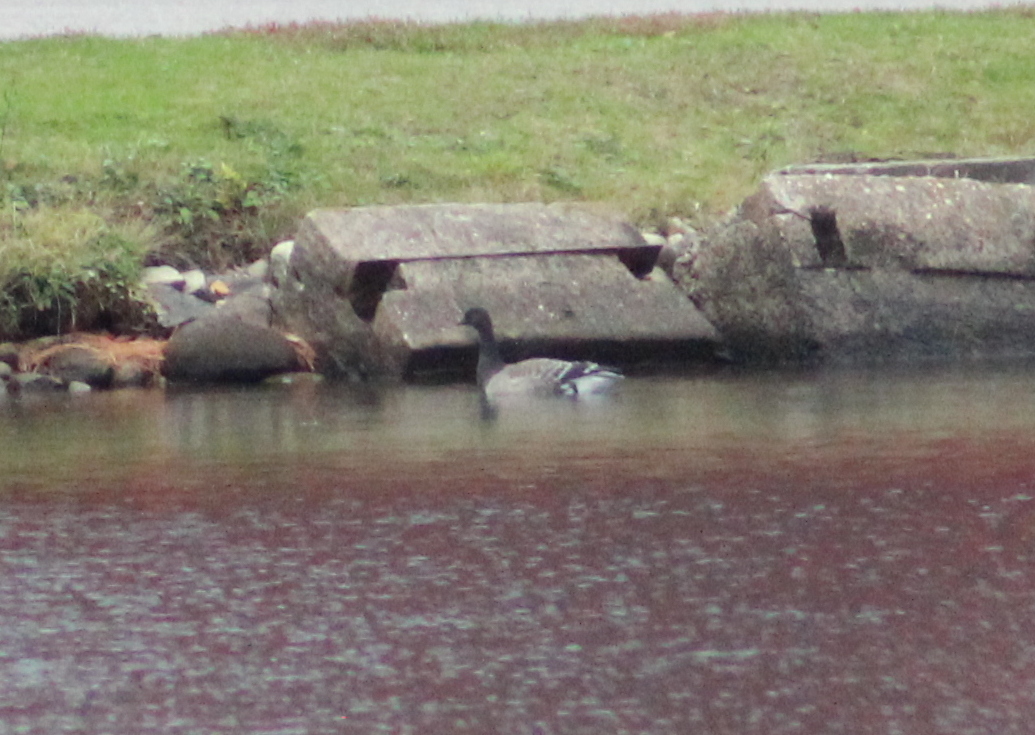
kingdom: Animalia
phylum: Chordata
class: Aves
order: Anseriformes
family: Anatidae
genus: Branta
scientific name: Branta bernicla
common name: Brant goose
